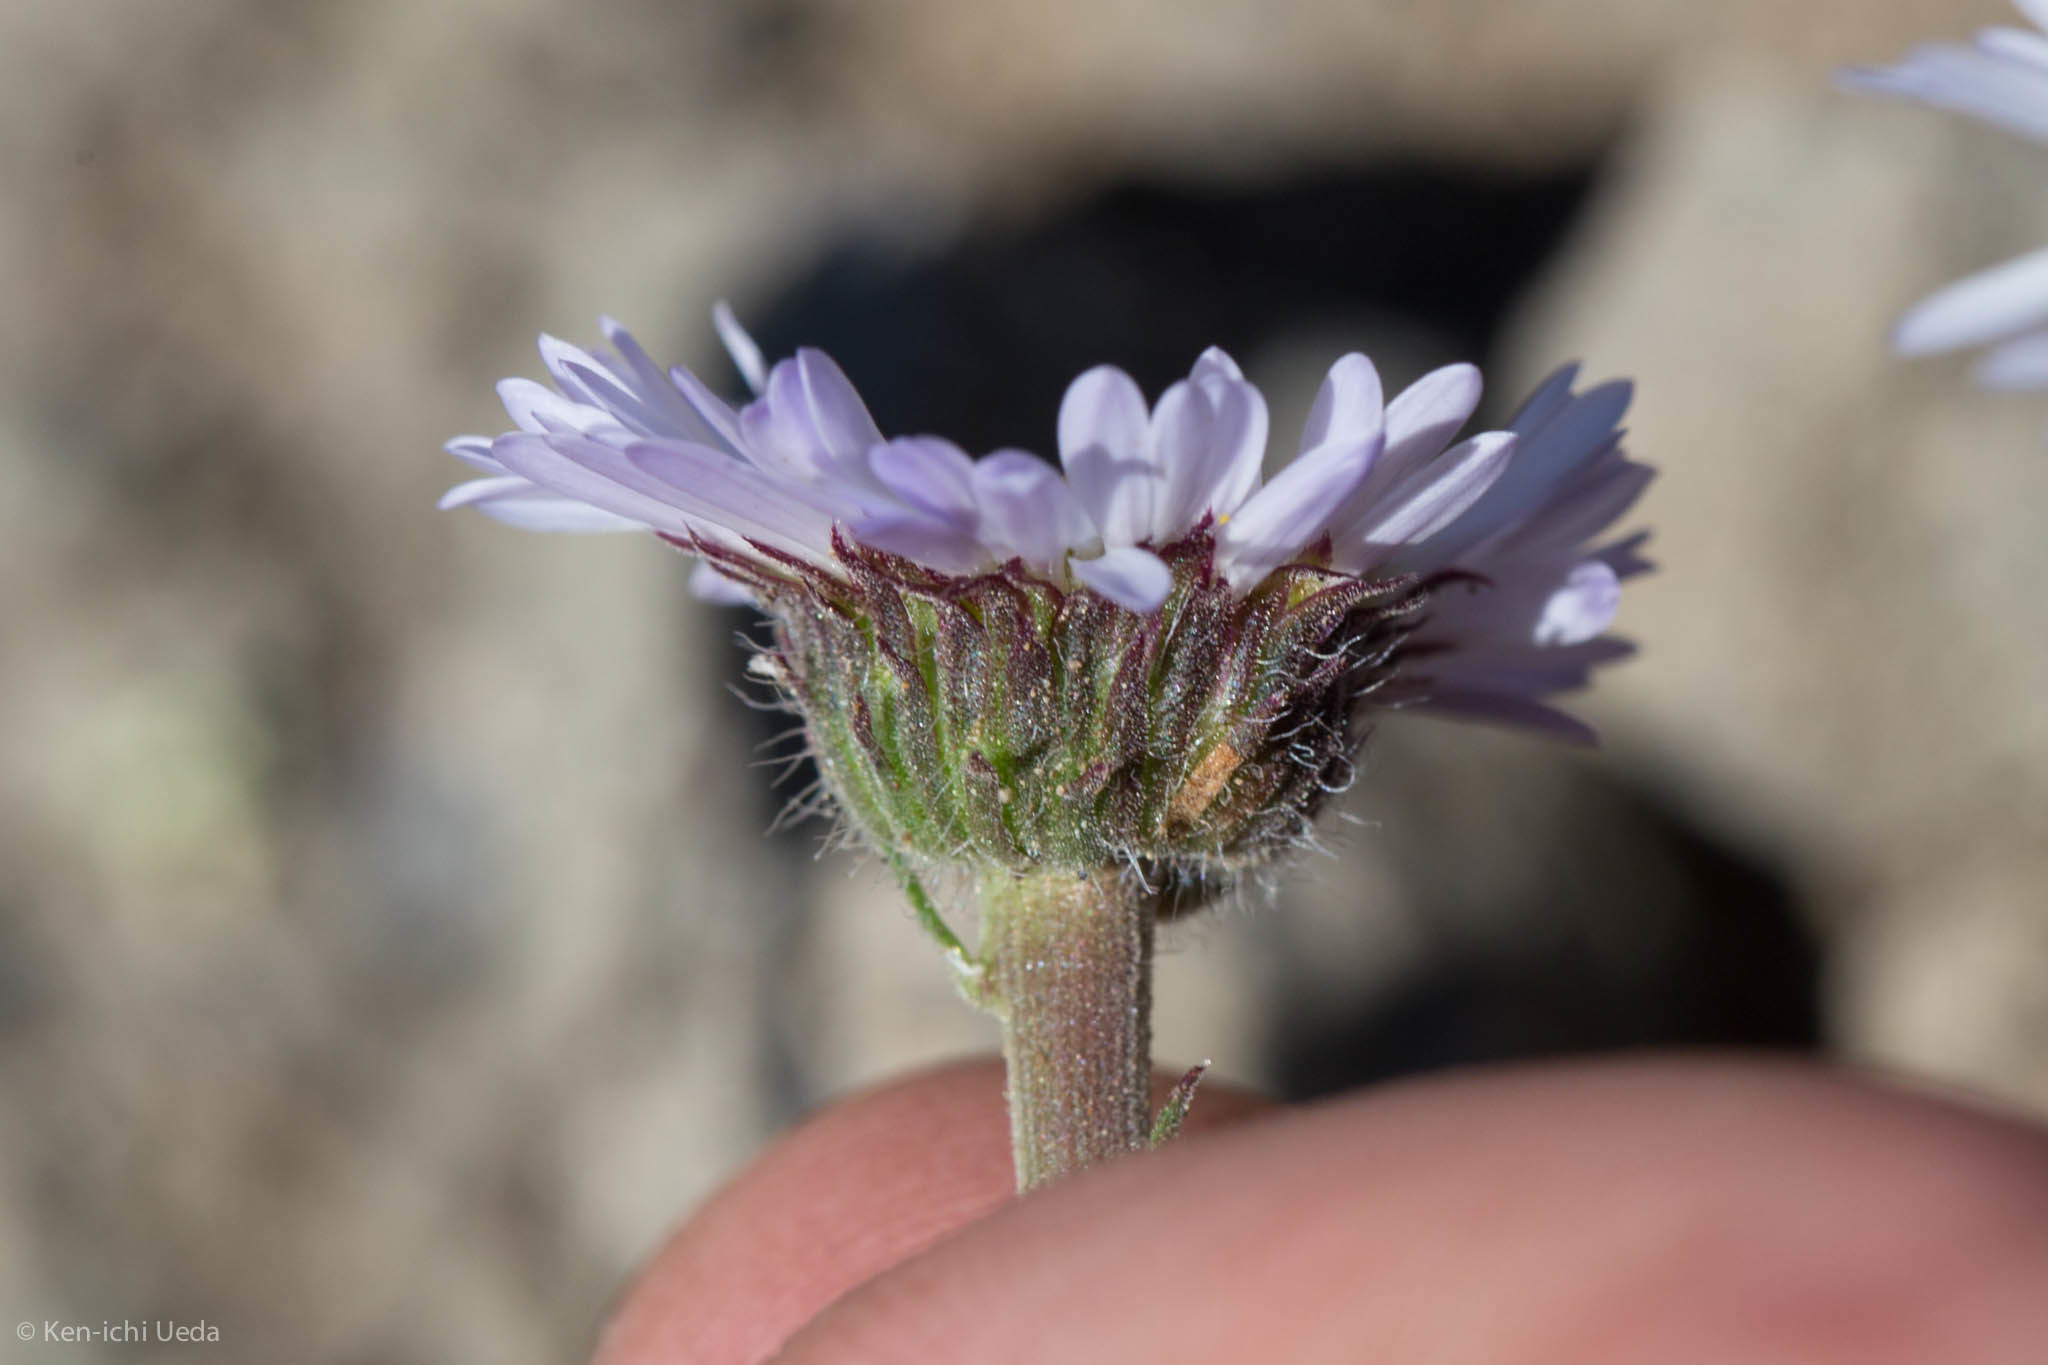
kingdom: Plantae
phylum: Tracheophyta
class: Magnoliopsida
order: Asterales
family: Asteraceae
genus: Erigeron
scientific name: Erigeron compositus
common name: Dwarf mountain fleabane
